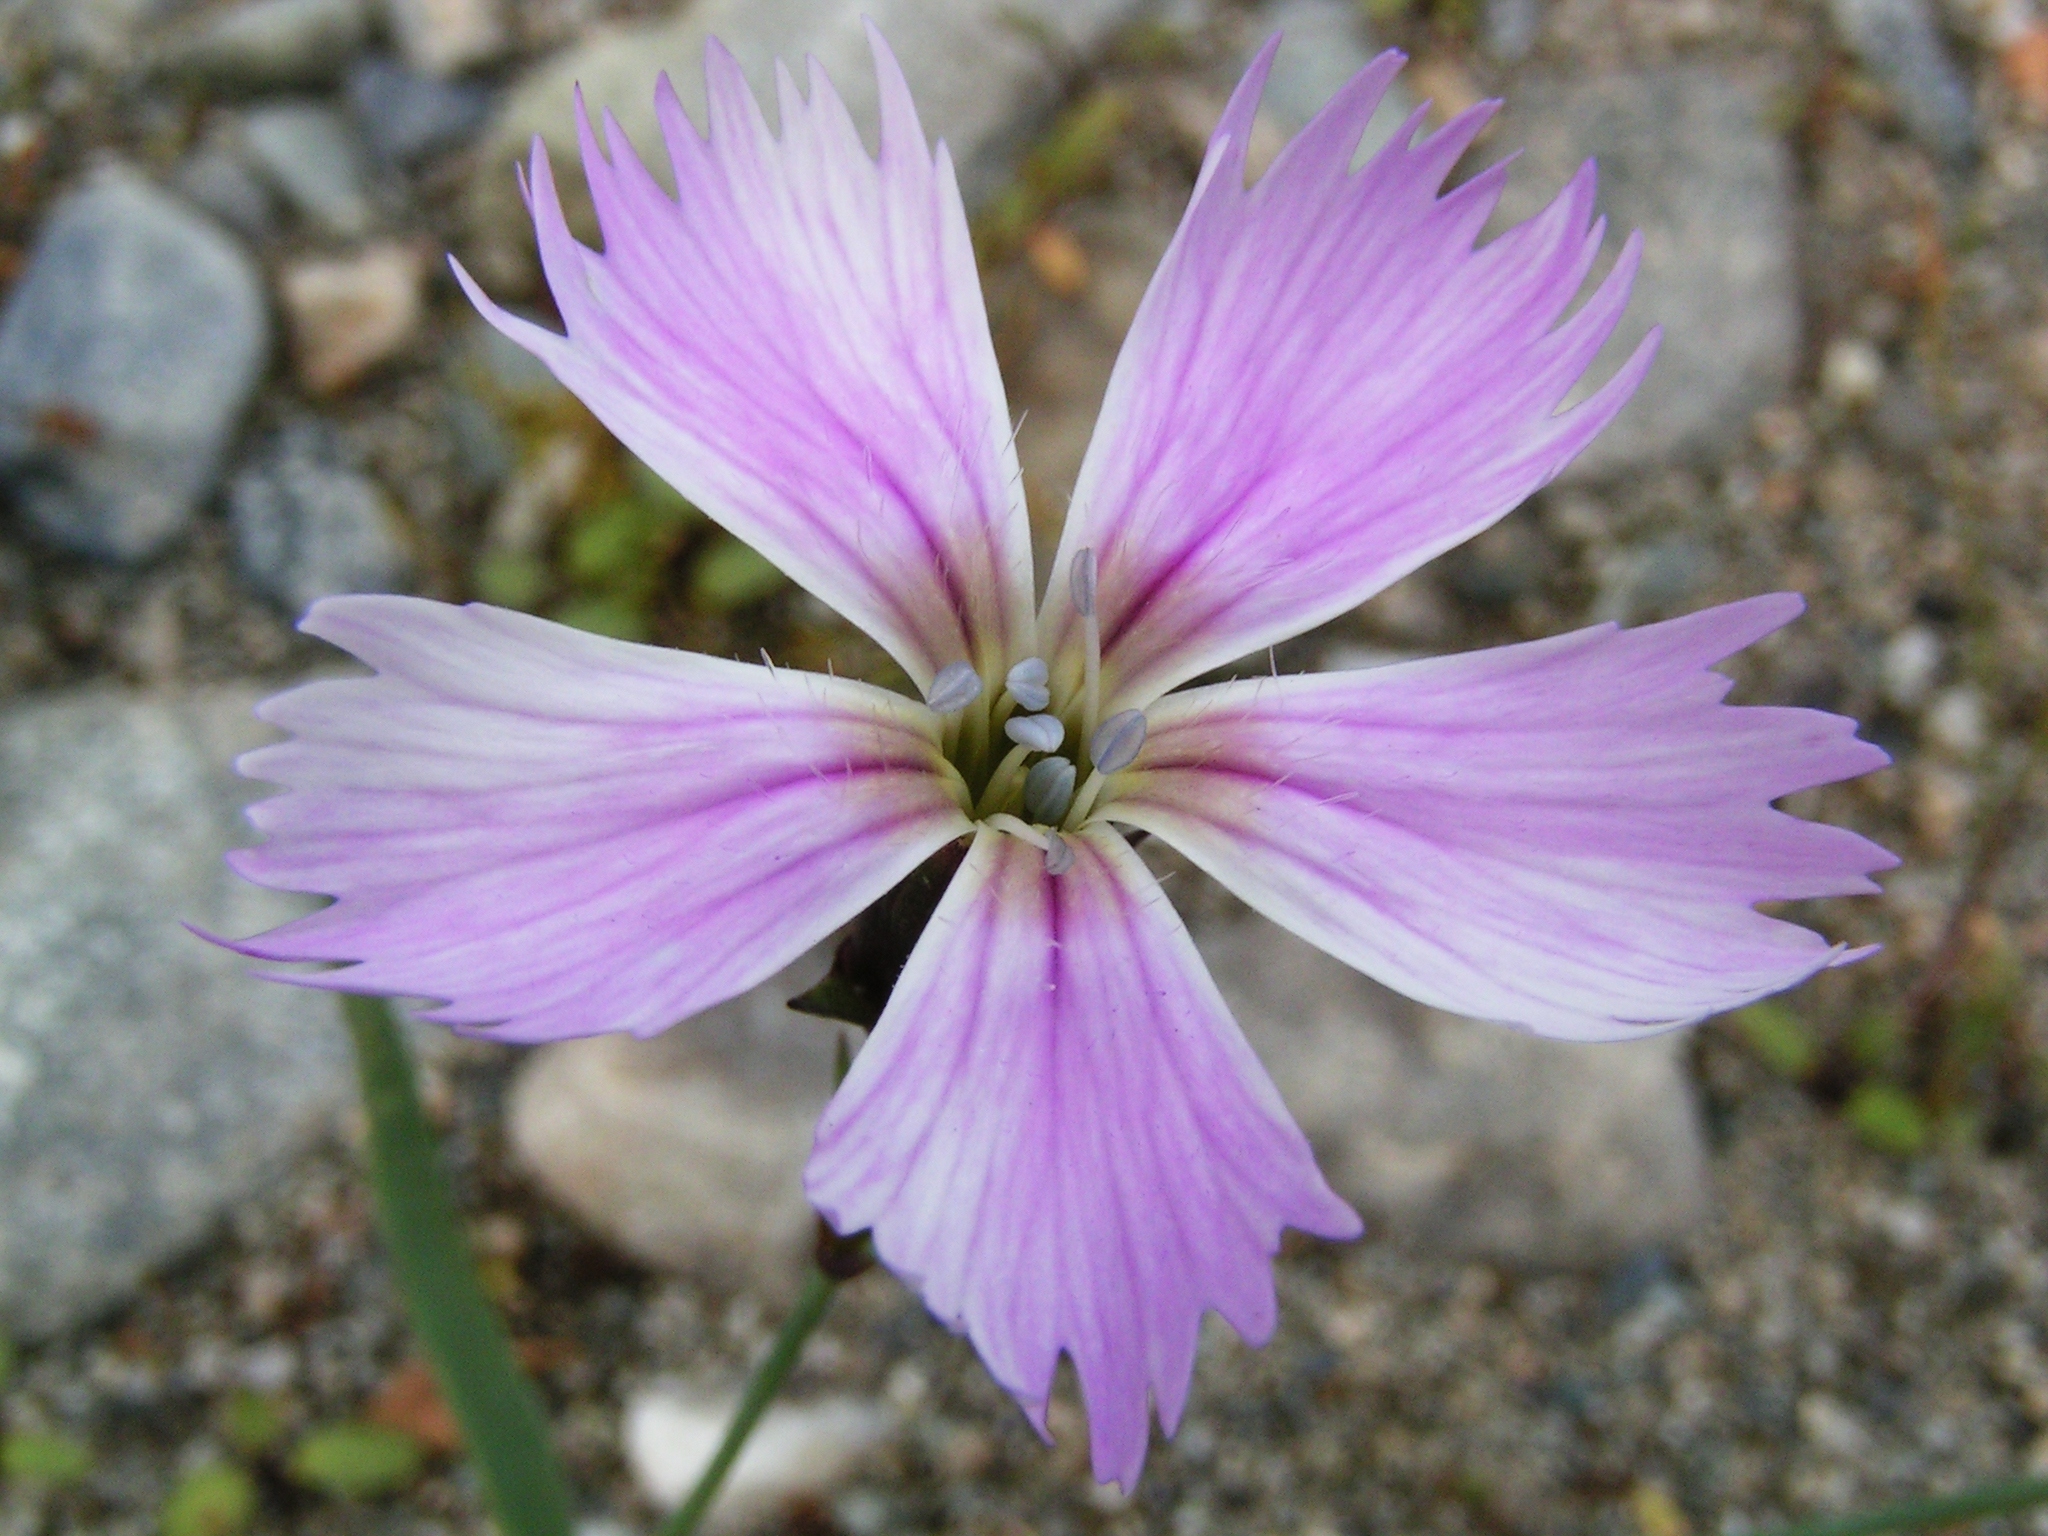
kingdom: Plantae
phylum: Tracheophyta
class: Magnoliopsida
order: Caryophyllales
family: Caryophyllaceae
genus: Dianthus
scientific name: Dianthus repens
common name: Northern pink
